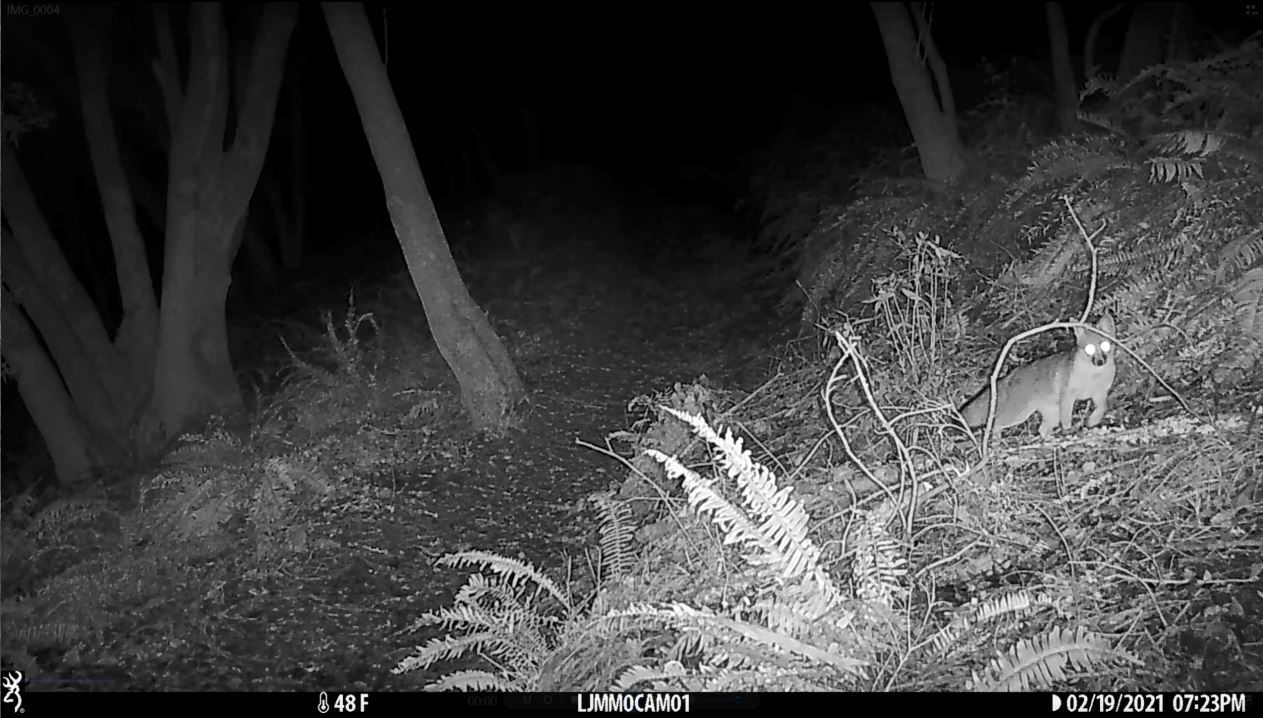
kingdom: Animalia
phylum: Chordata
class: Mammalia
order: Carnivora
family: Canidae
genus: Urocyon
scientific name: Urocyon cinereoargenteus
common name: Gray fox
